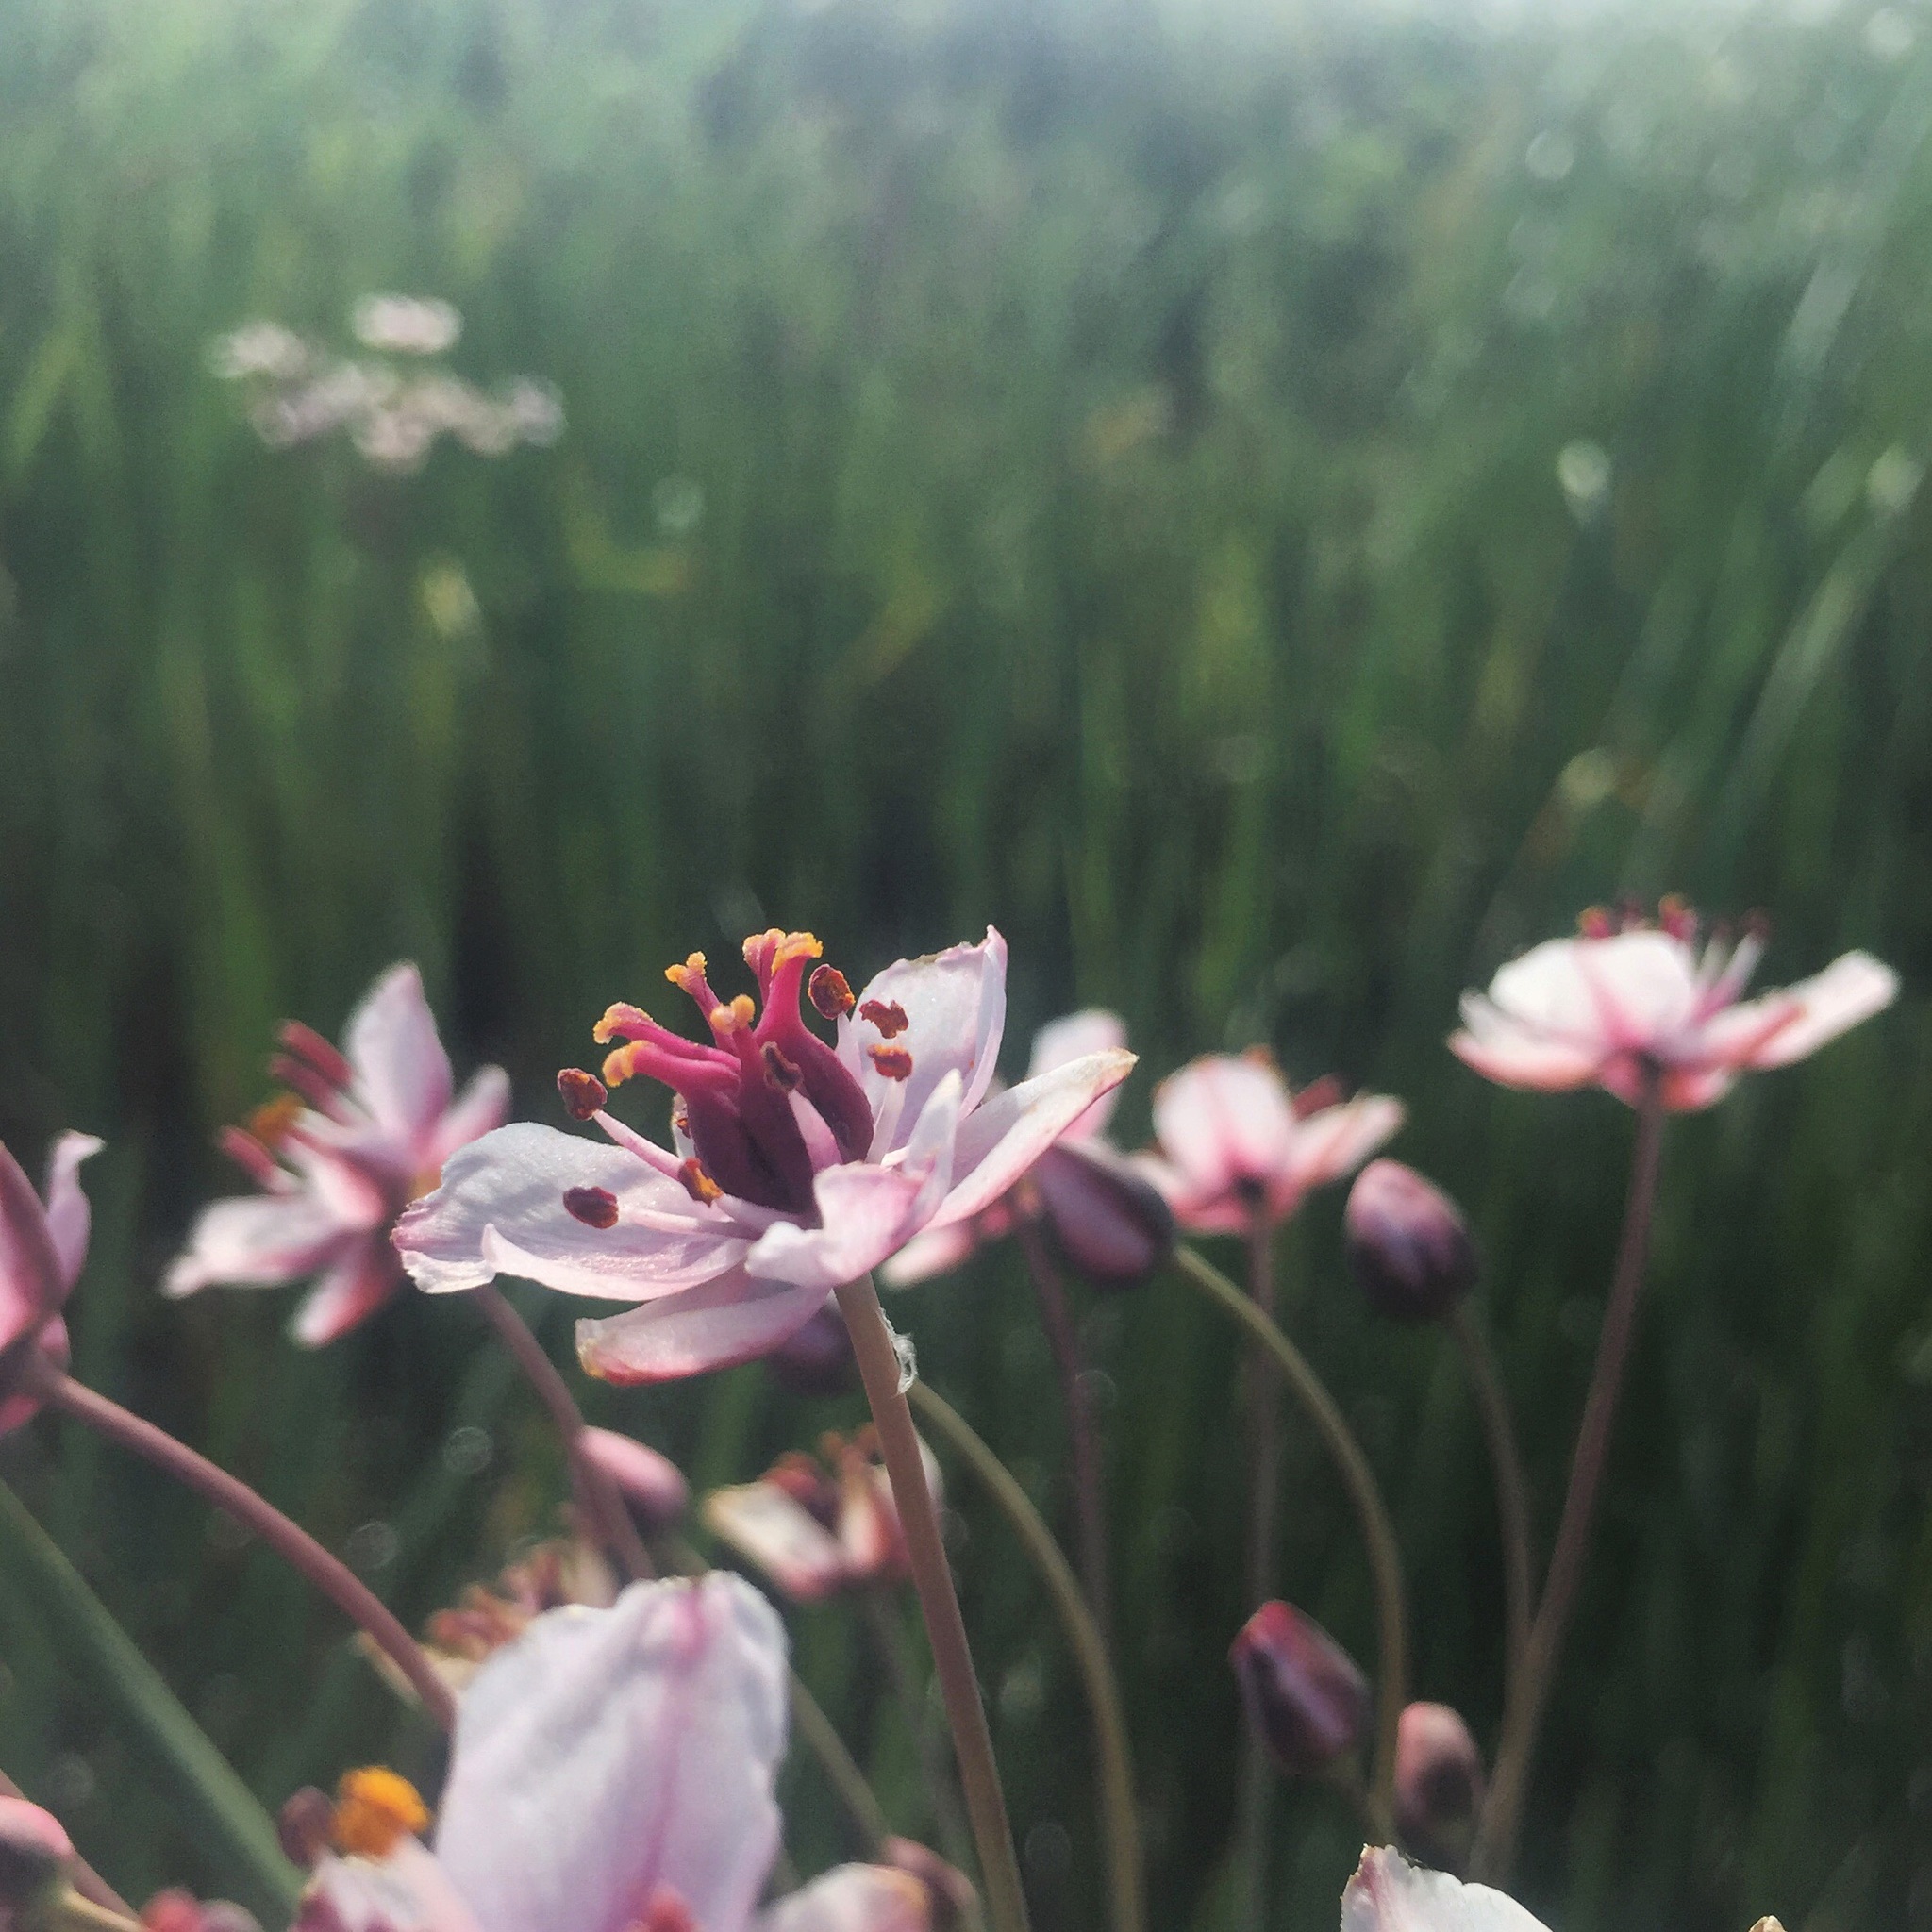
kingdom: Plantae
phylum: Tracheophyta
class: Liliopsida
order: Alismatales
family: Butomaceae
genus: Butomus
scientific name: Butomus umbellatus
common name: Flowering-rush
